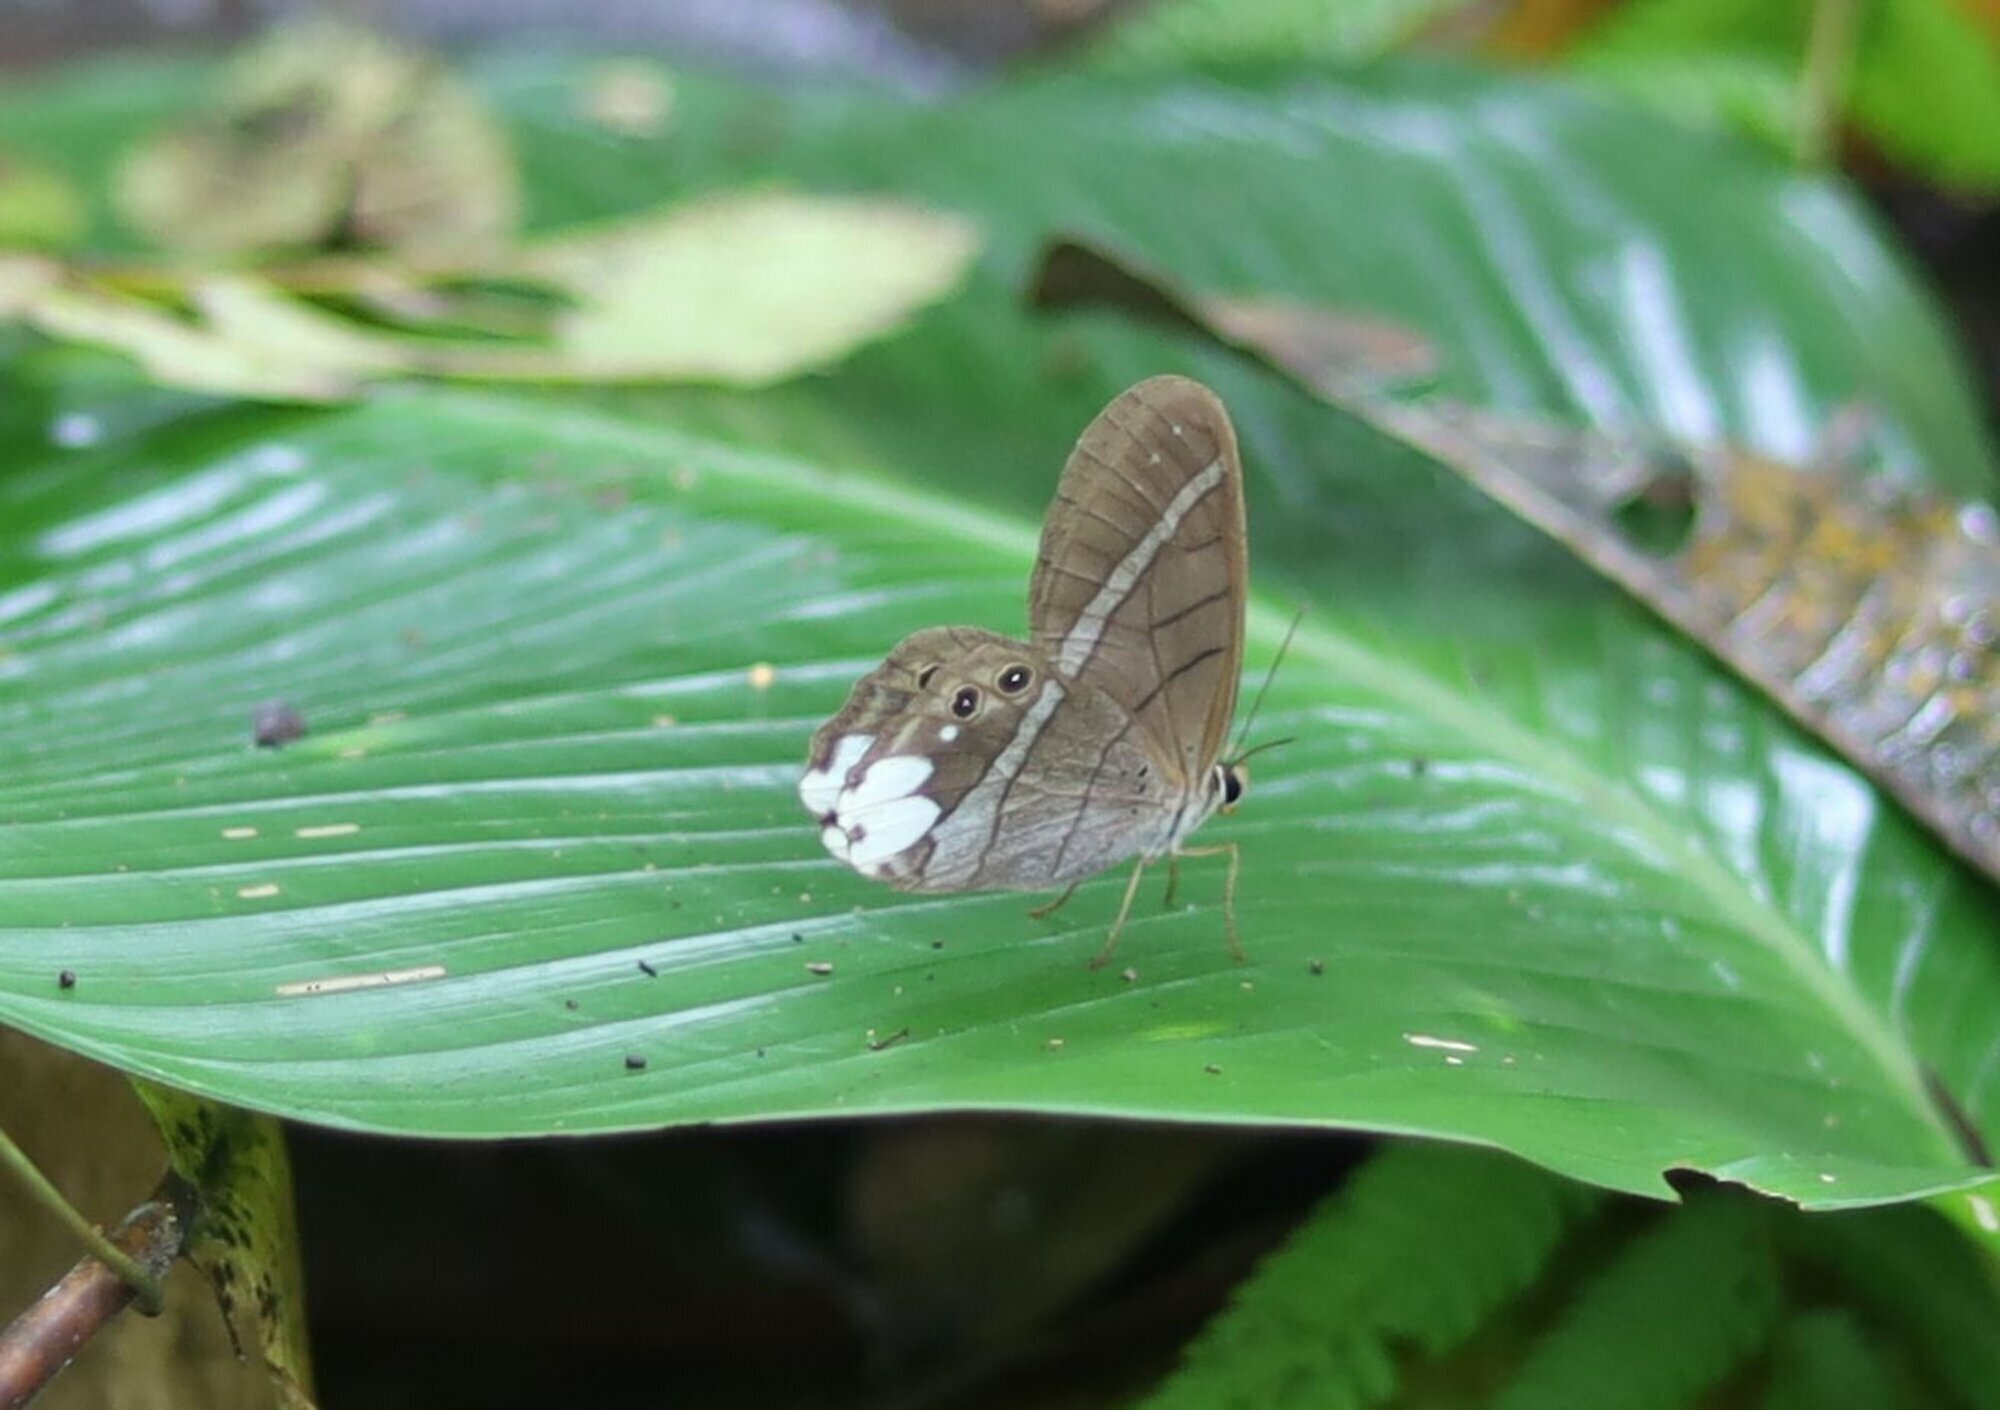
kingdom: Animalia
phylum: Arthropoda
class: Insecta
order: Lepidoptera
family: Nymphalidae
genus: Pierella
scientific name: Pierella astyoche
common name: Astyoche satyr
